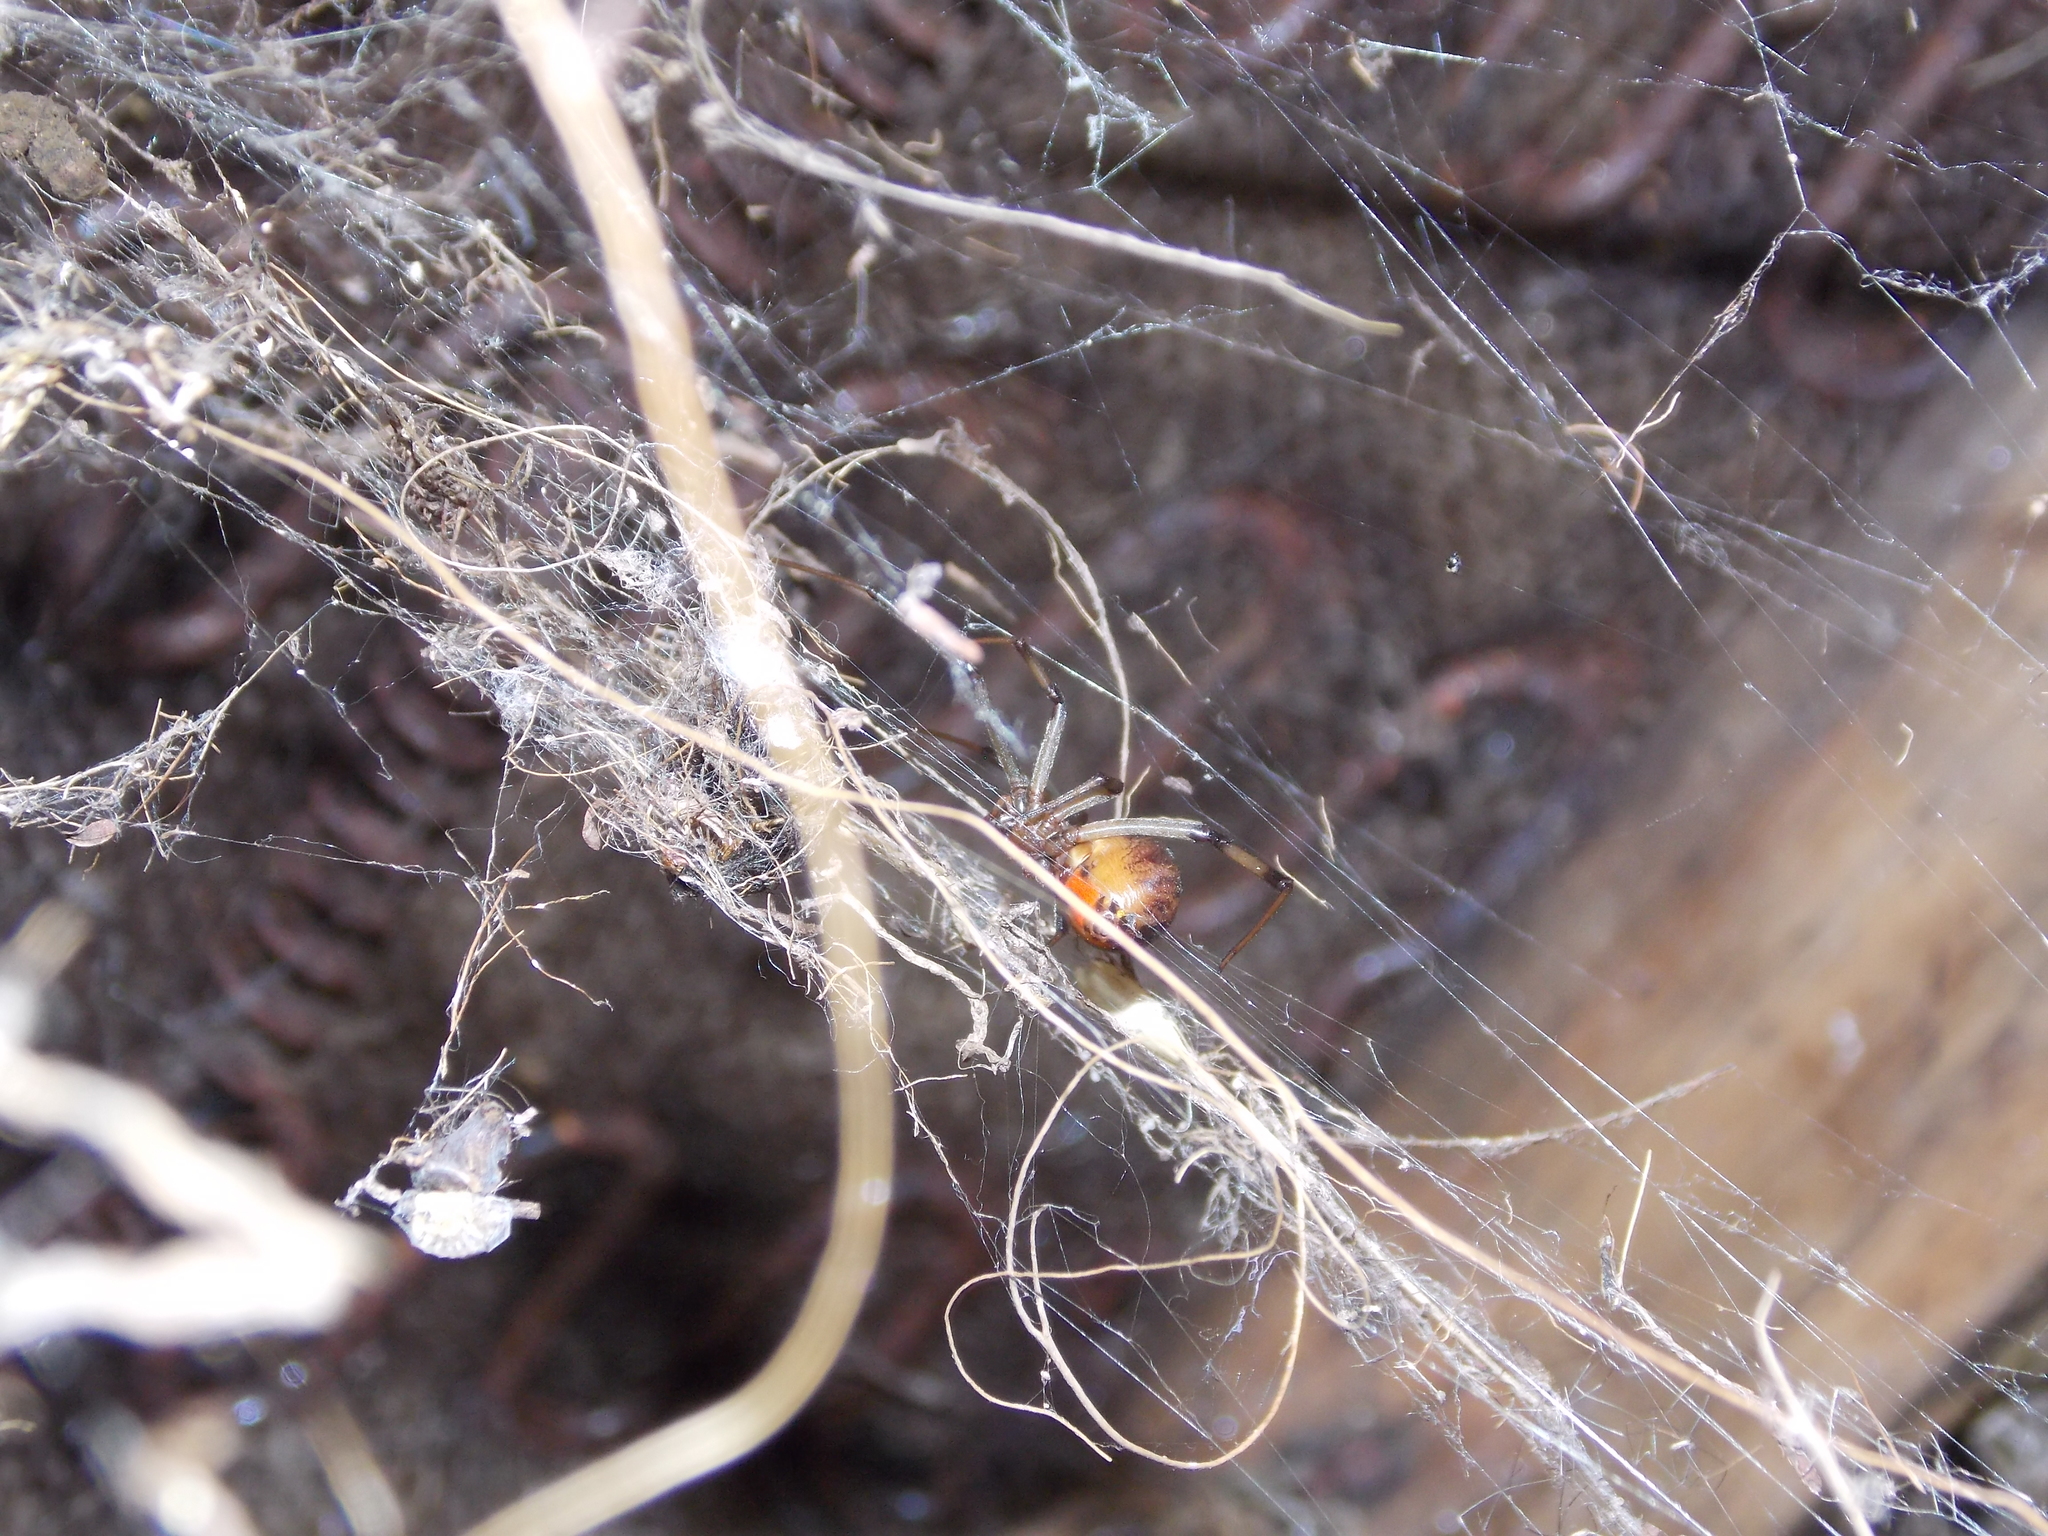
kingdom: Animalia
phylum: Arthropoda
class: Arachnida
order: Araneae
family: Theridiidae
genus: Latrodectus
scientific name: Latrodectus geometricus
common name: Brown widow spider
